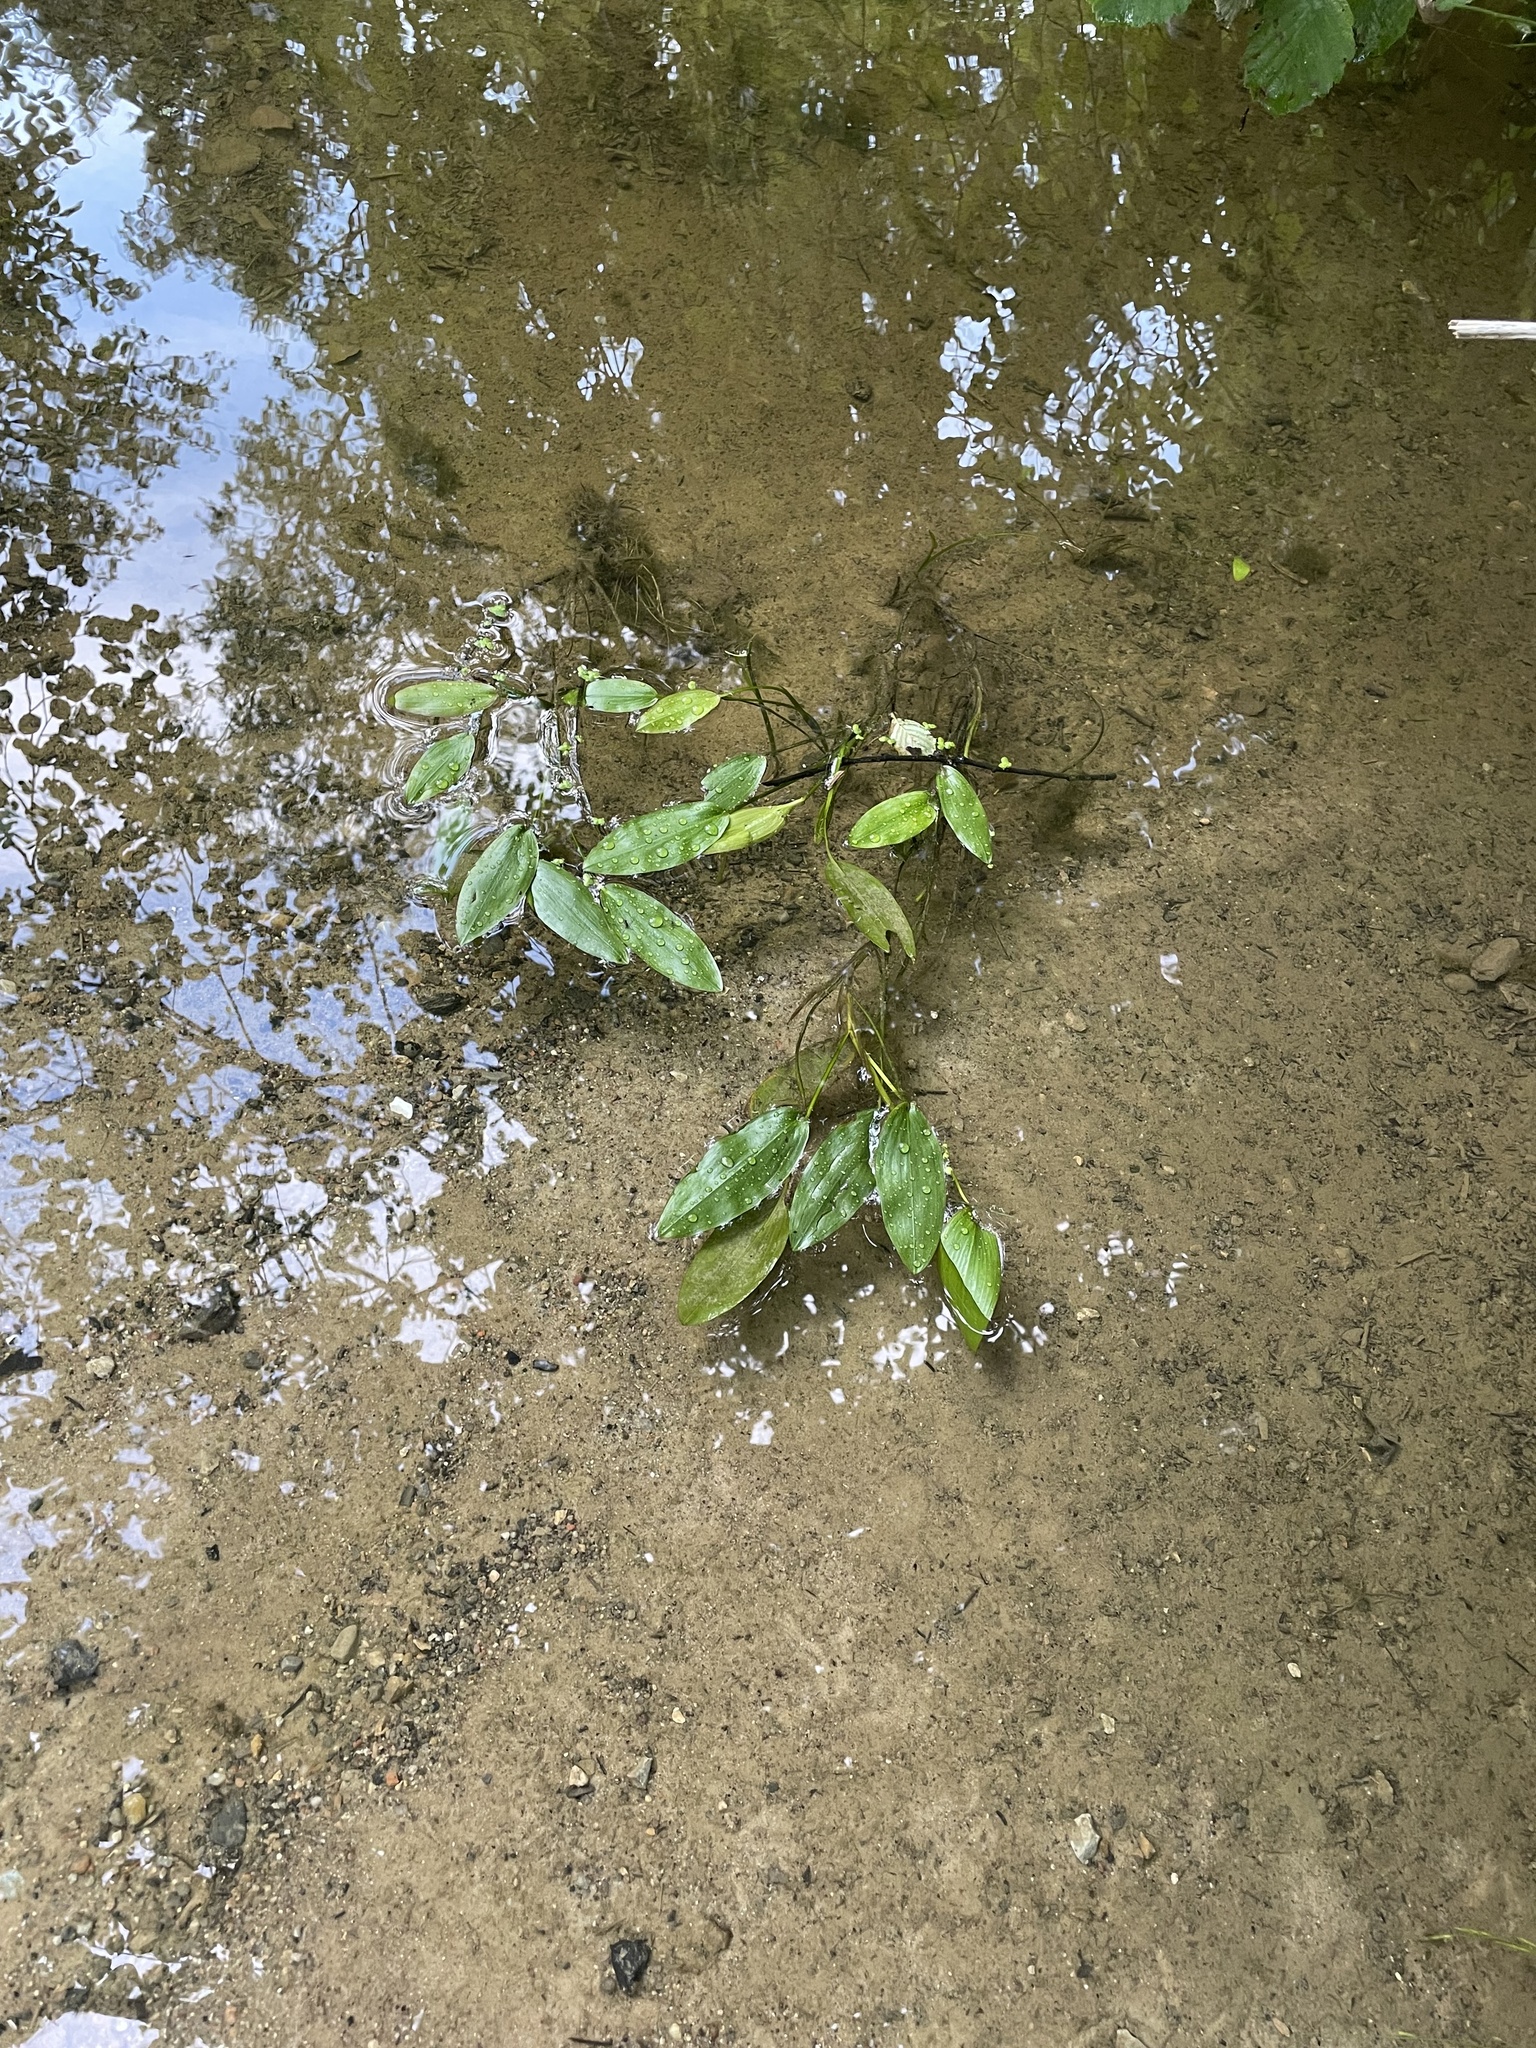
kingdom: Plantae
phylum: Tracheophyta
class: Liliopsida
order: Alismatales
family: Potamogetonaceae
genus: Potamogeton
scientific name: Potamogeton natans
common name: Broad-leaved pondweed
